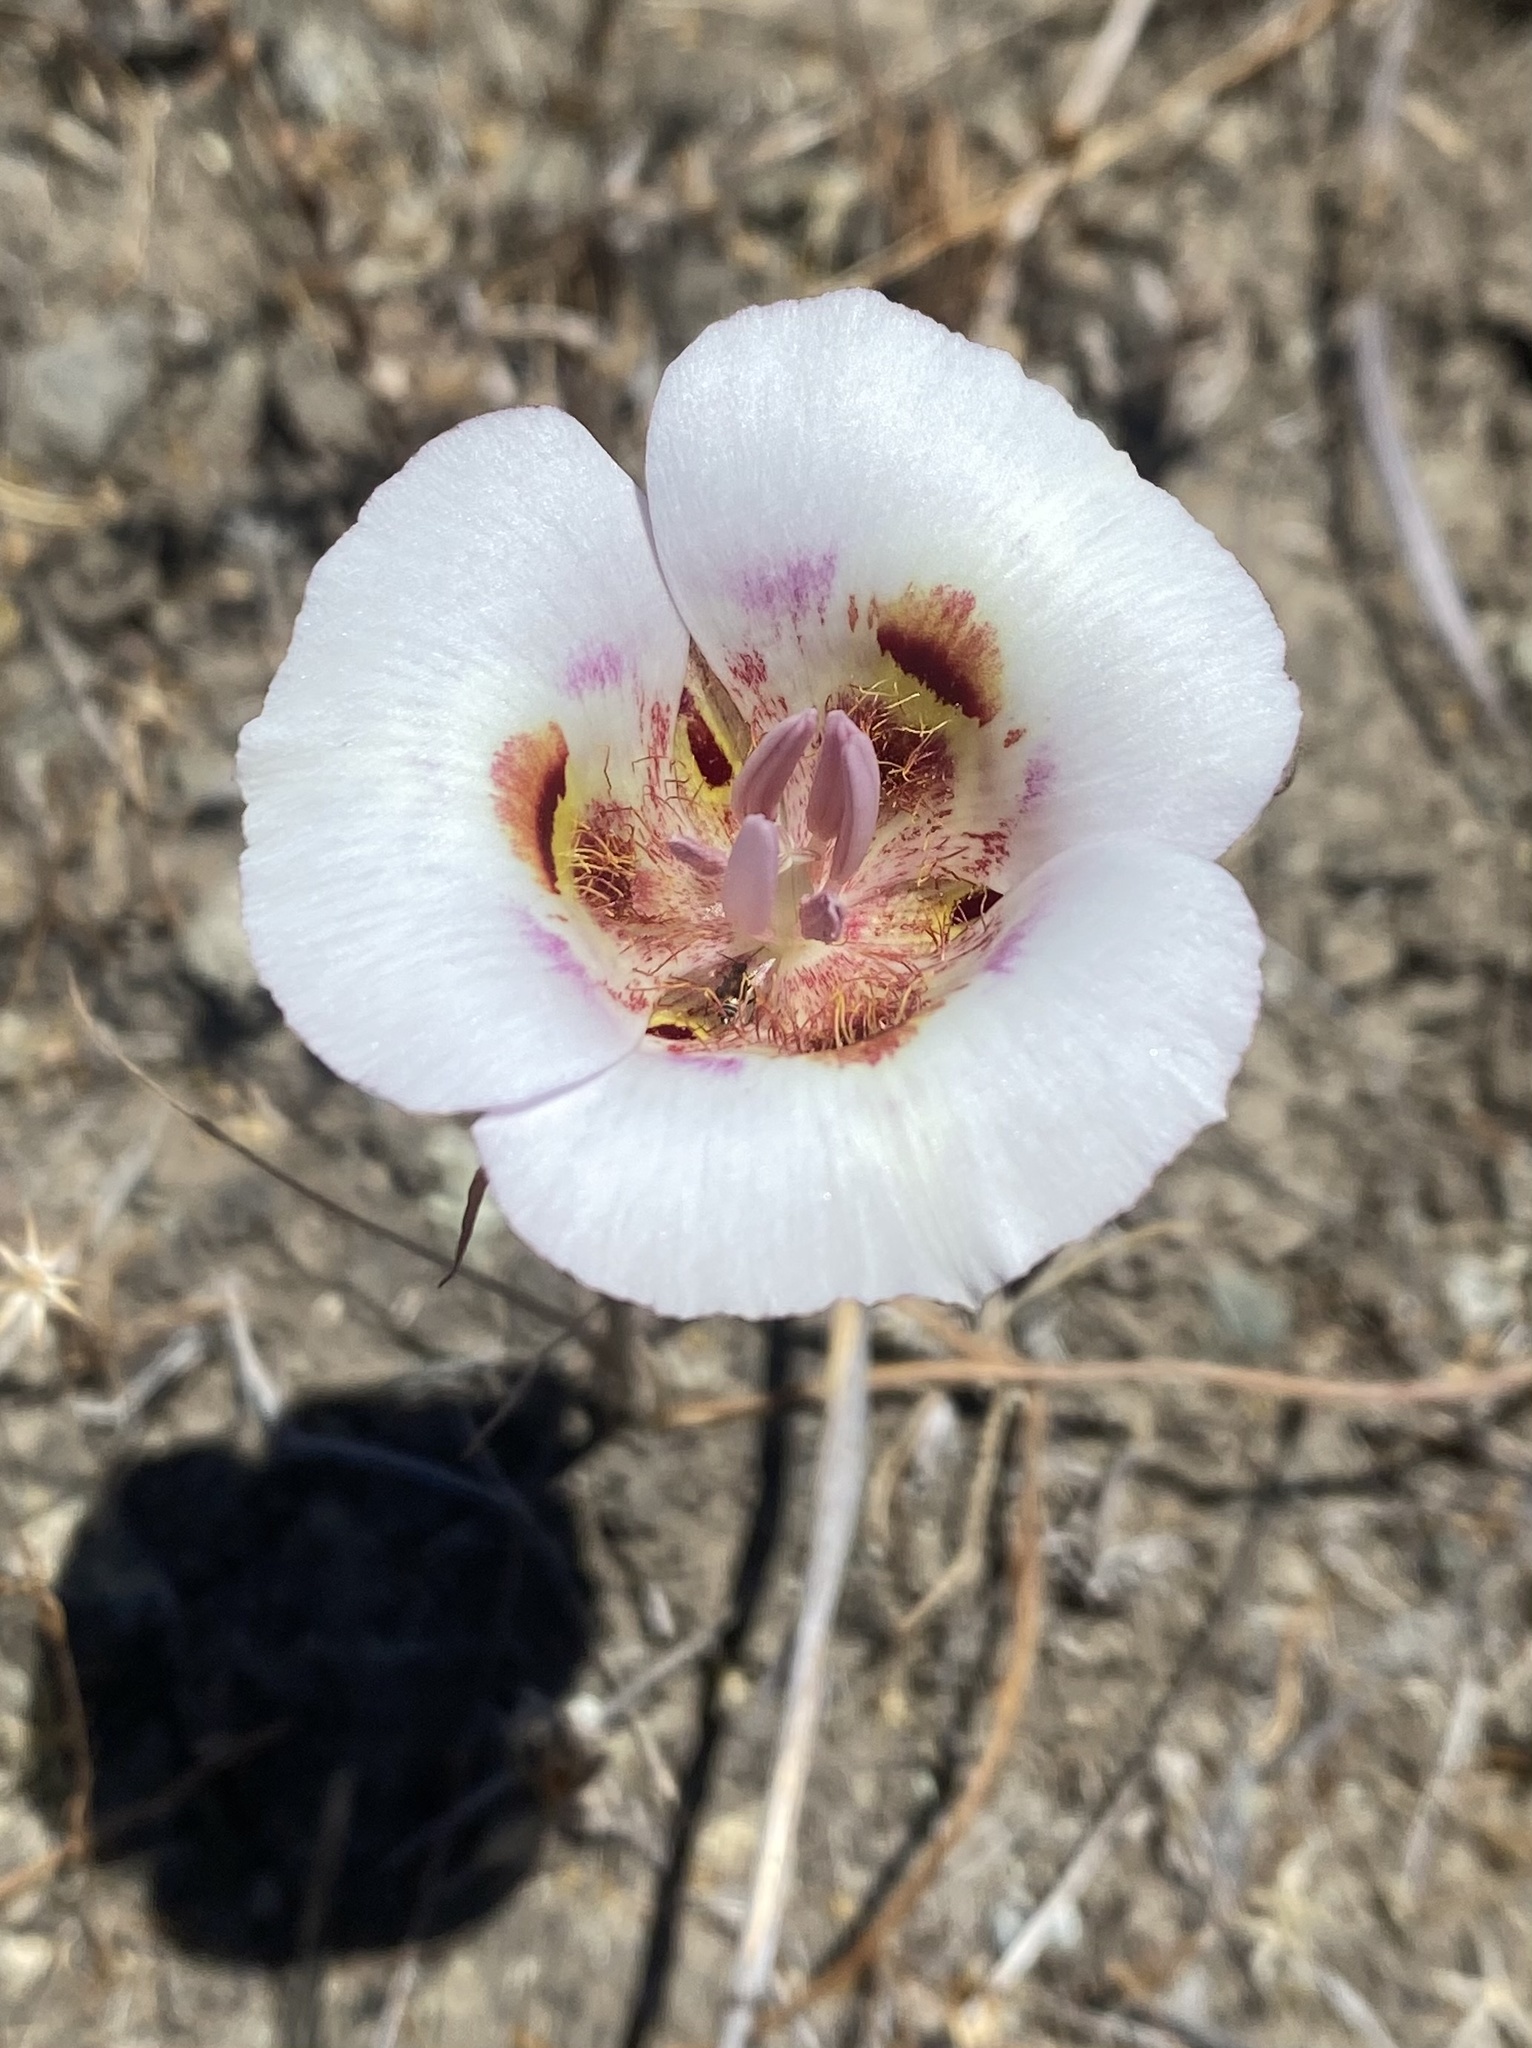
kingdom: Plantae
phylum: Tracheophyta
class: Liliopsida
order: Liliales
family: Liliaceae
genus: Calochortus
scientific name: Calochortus argillosus
